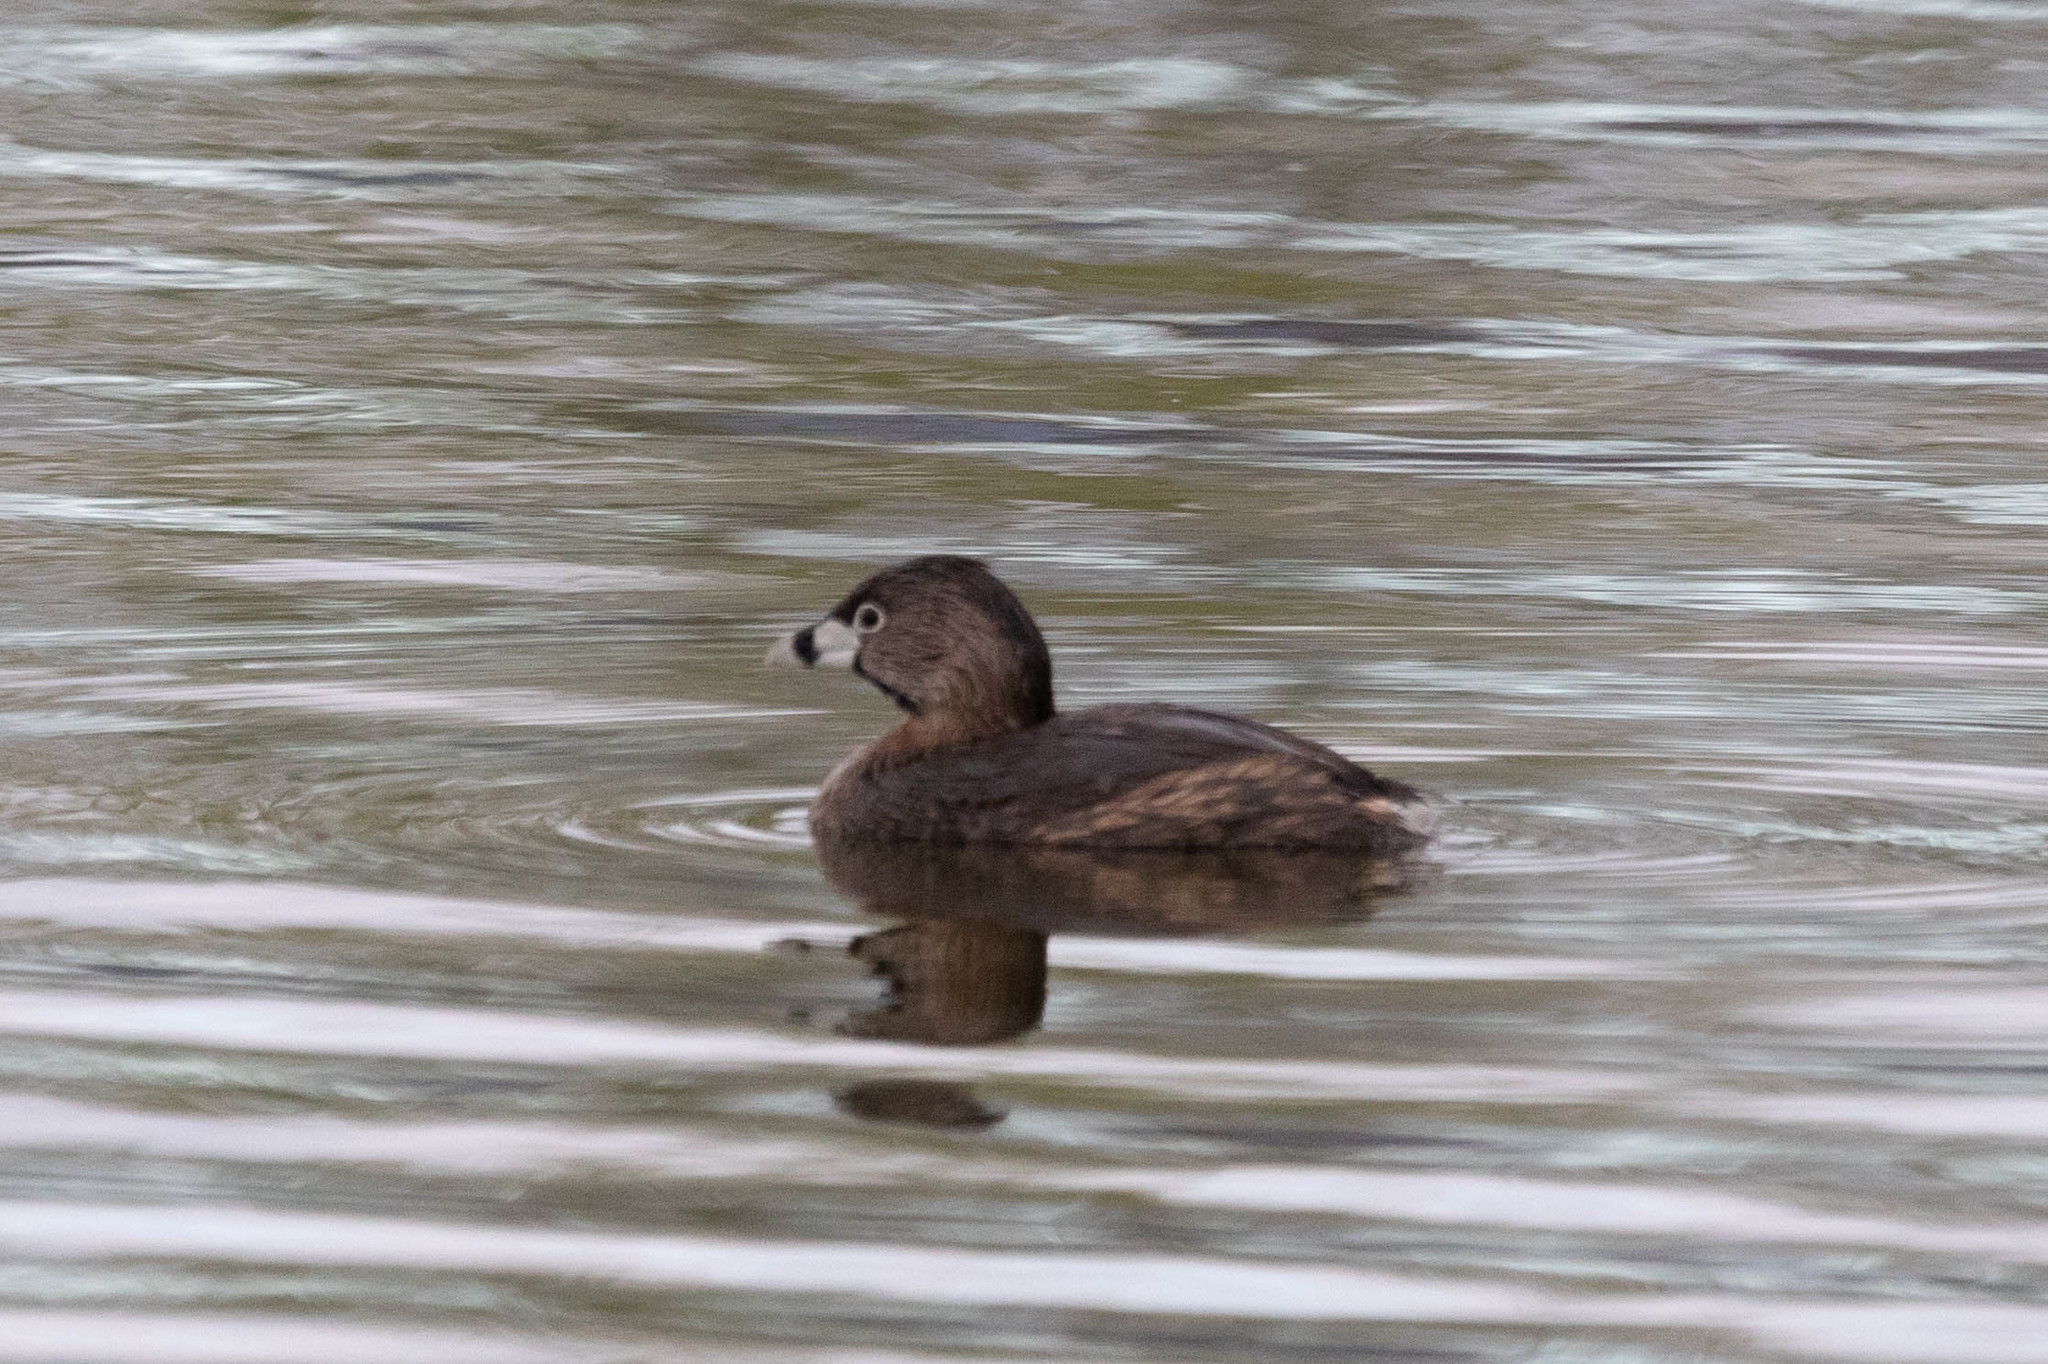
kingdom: Animalia
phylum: Chordata
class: Aves
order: Podicipediformes
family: Podicipedidae
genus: Podilymbus
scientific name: Podilymbus podiceps
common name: Pied-billed grebe
